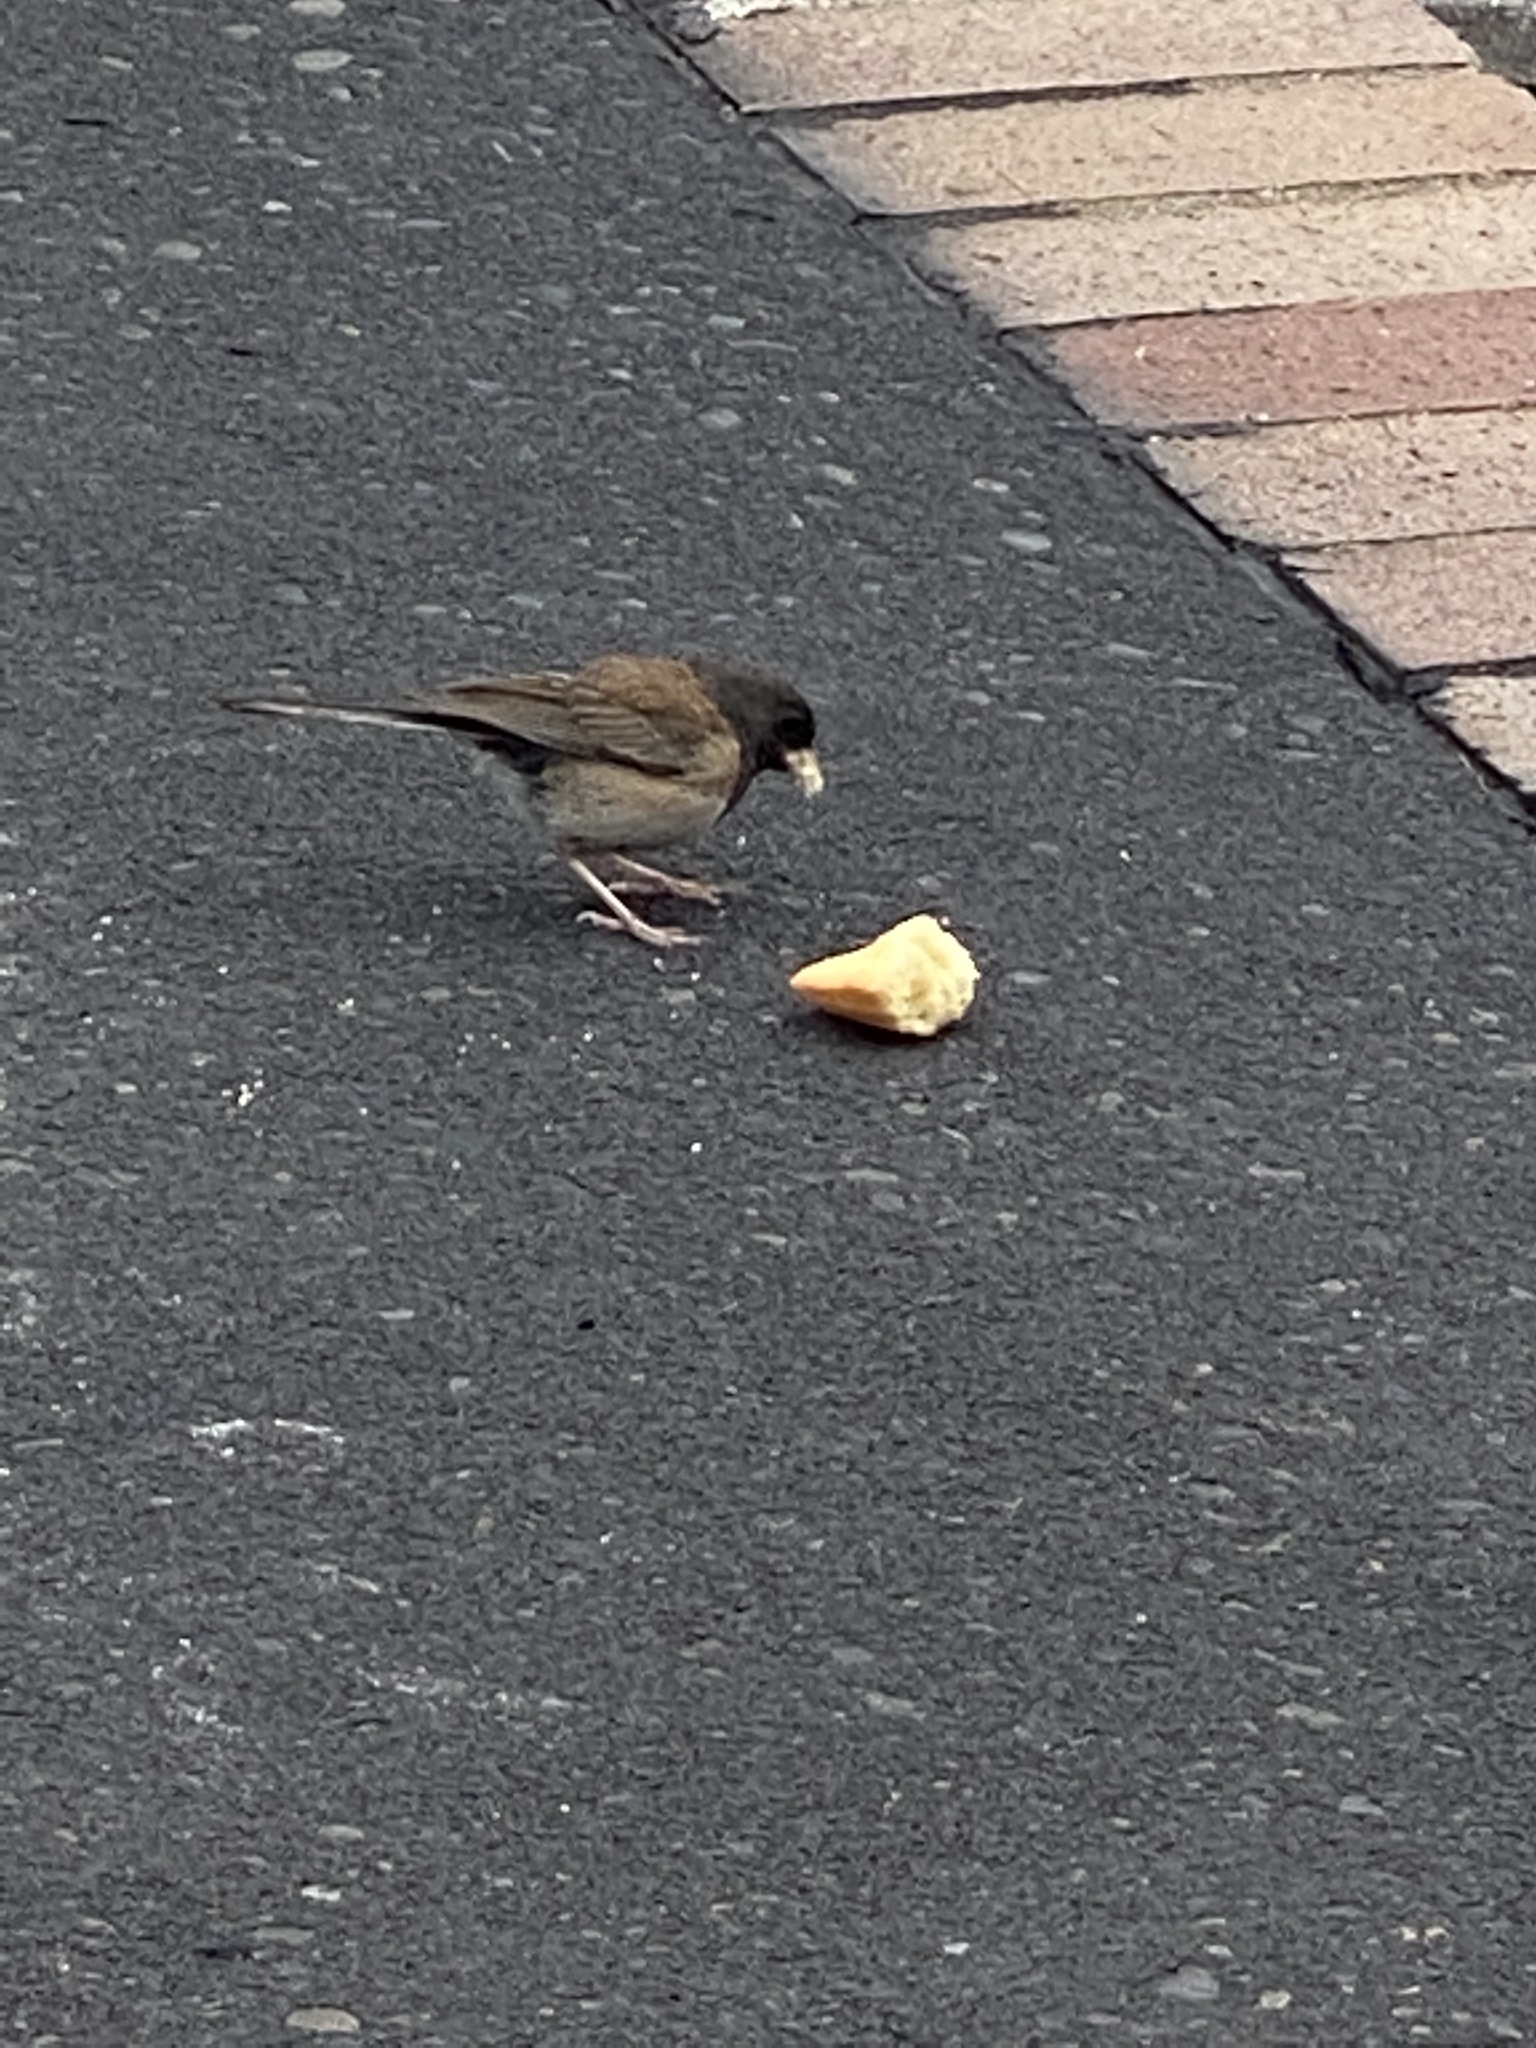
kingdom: Animalia
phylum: Chordata
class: Aves
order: Passeriformes
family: Passerellidae
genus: Junco
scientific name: Junco hyemalis
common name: Dark-eyed junco
